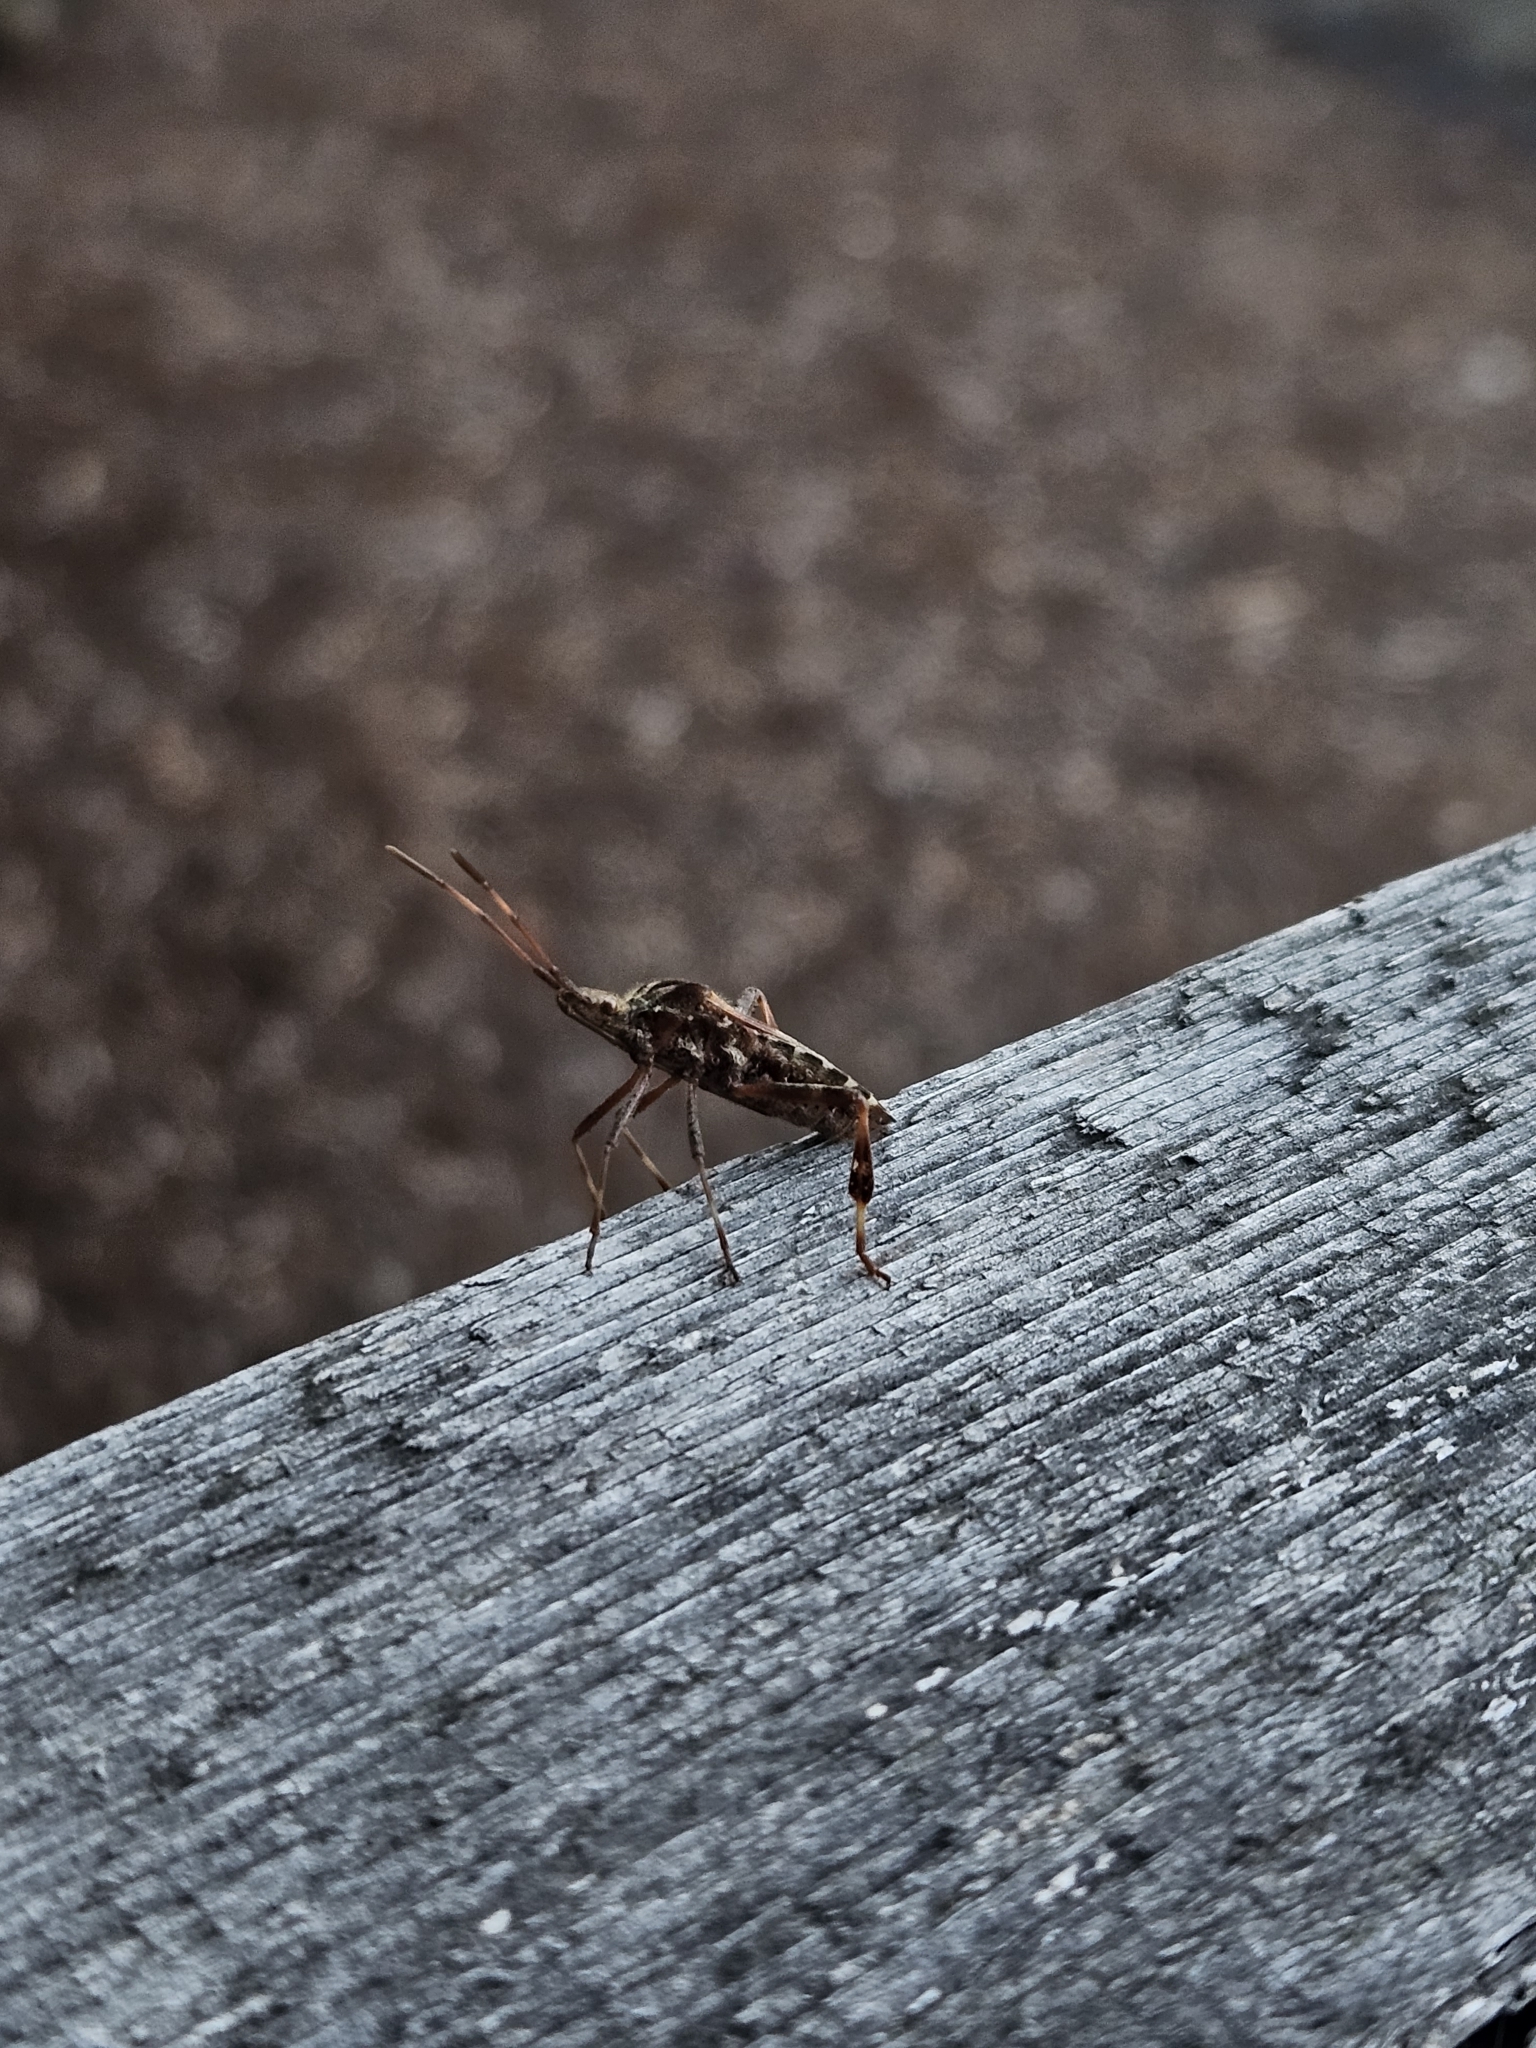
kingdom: Animalia
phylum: Arthropoda
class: Insecta
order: Hemiptera
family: Coreidae
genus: Leptoglossus
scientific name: Leptoglossus occidentalis
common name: Western conifer-seed bug
